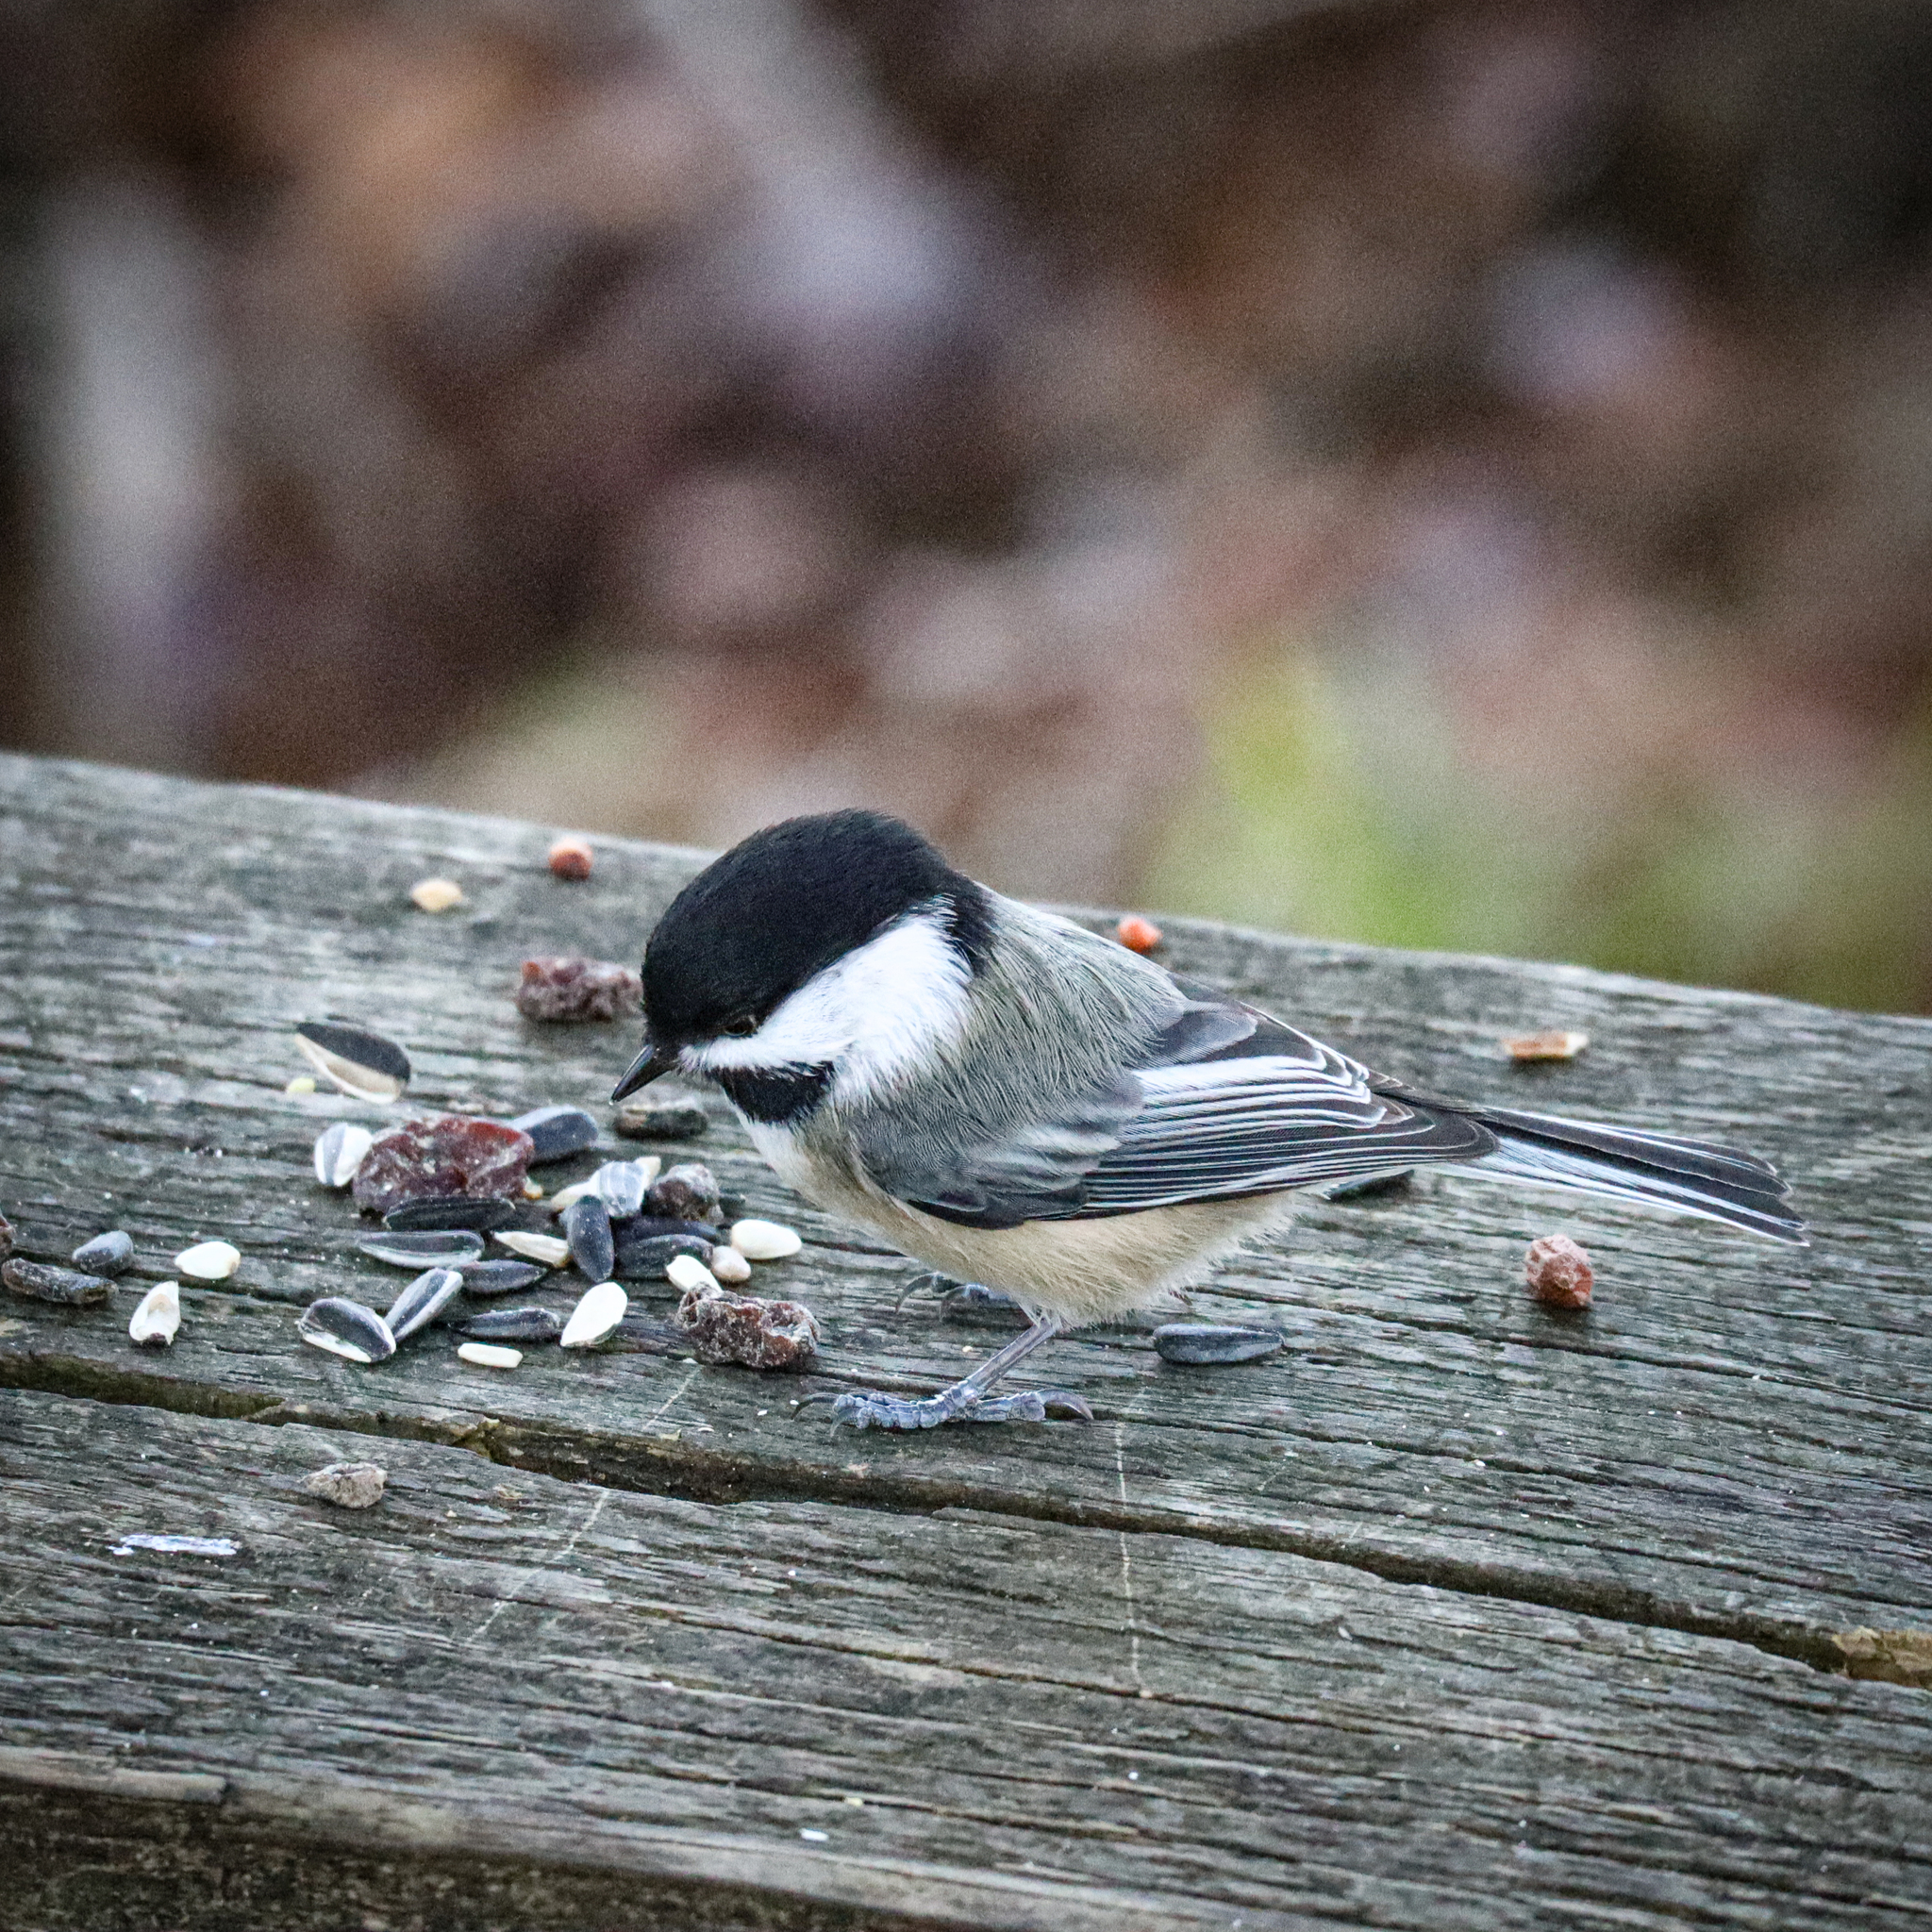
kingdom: Animalia
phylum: Chordata
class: Aves
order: Passeriformes
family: Paridae
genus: Poecile
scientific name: Poecile atricapillus
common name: Black-capped chickadee
